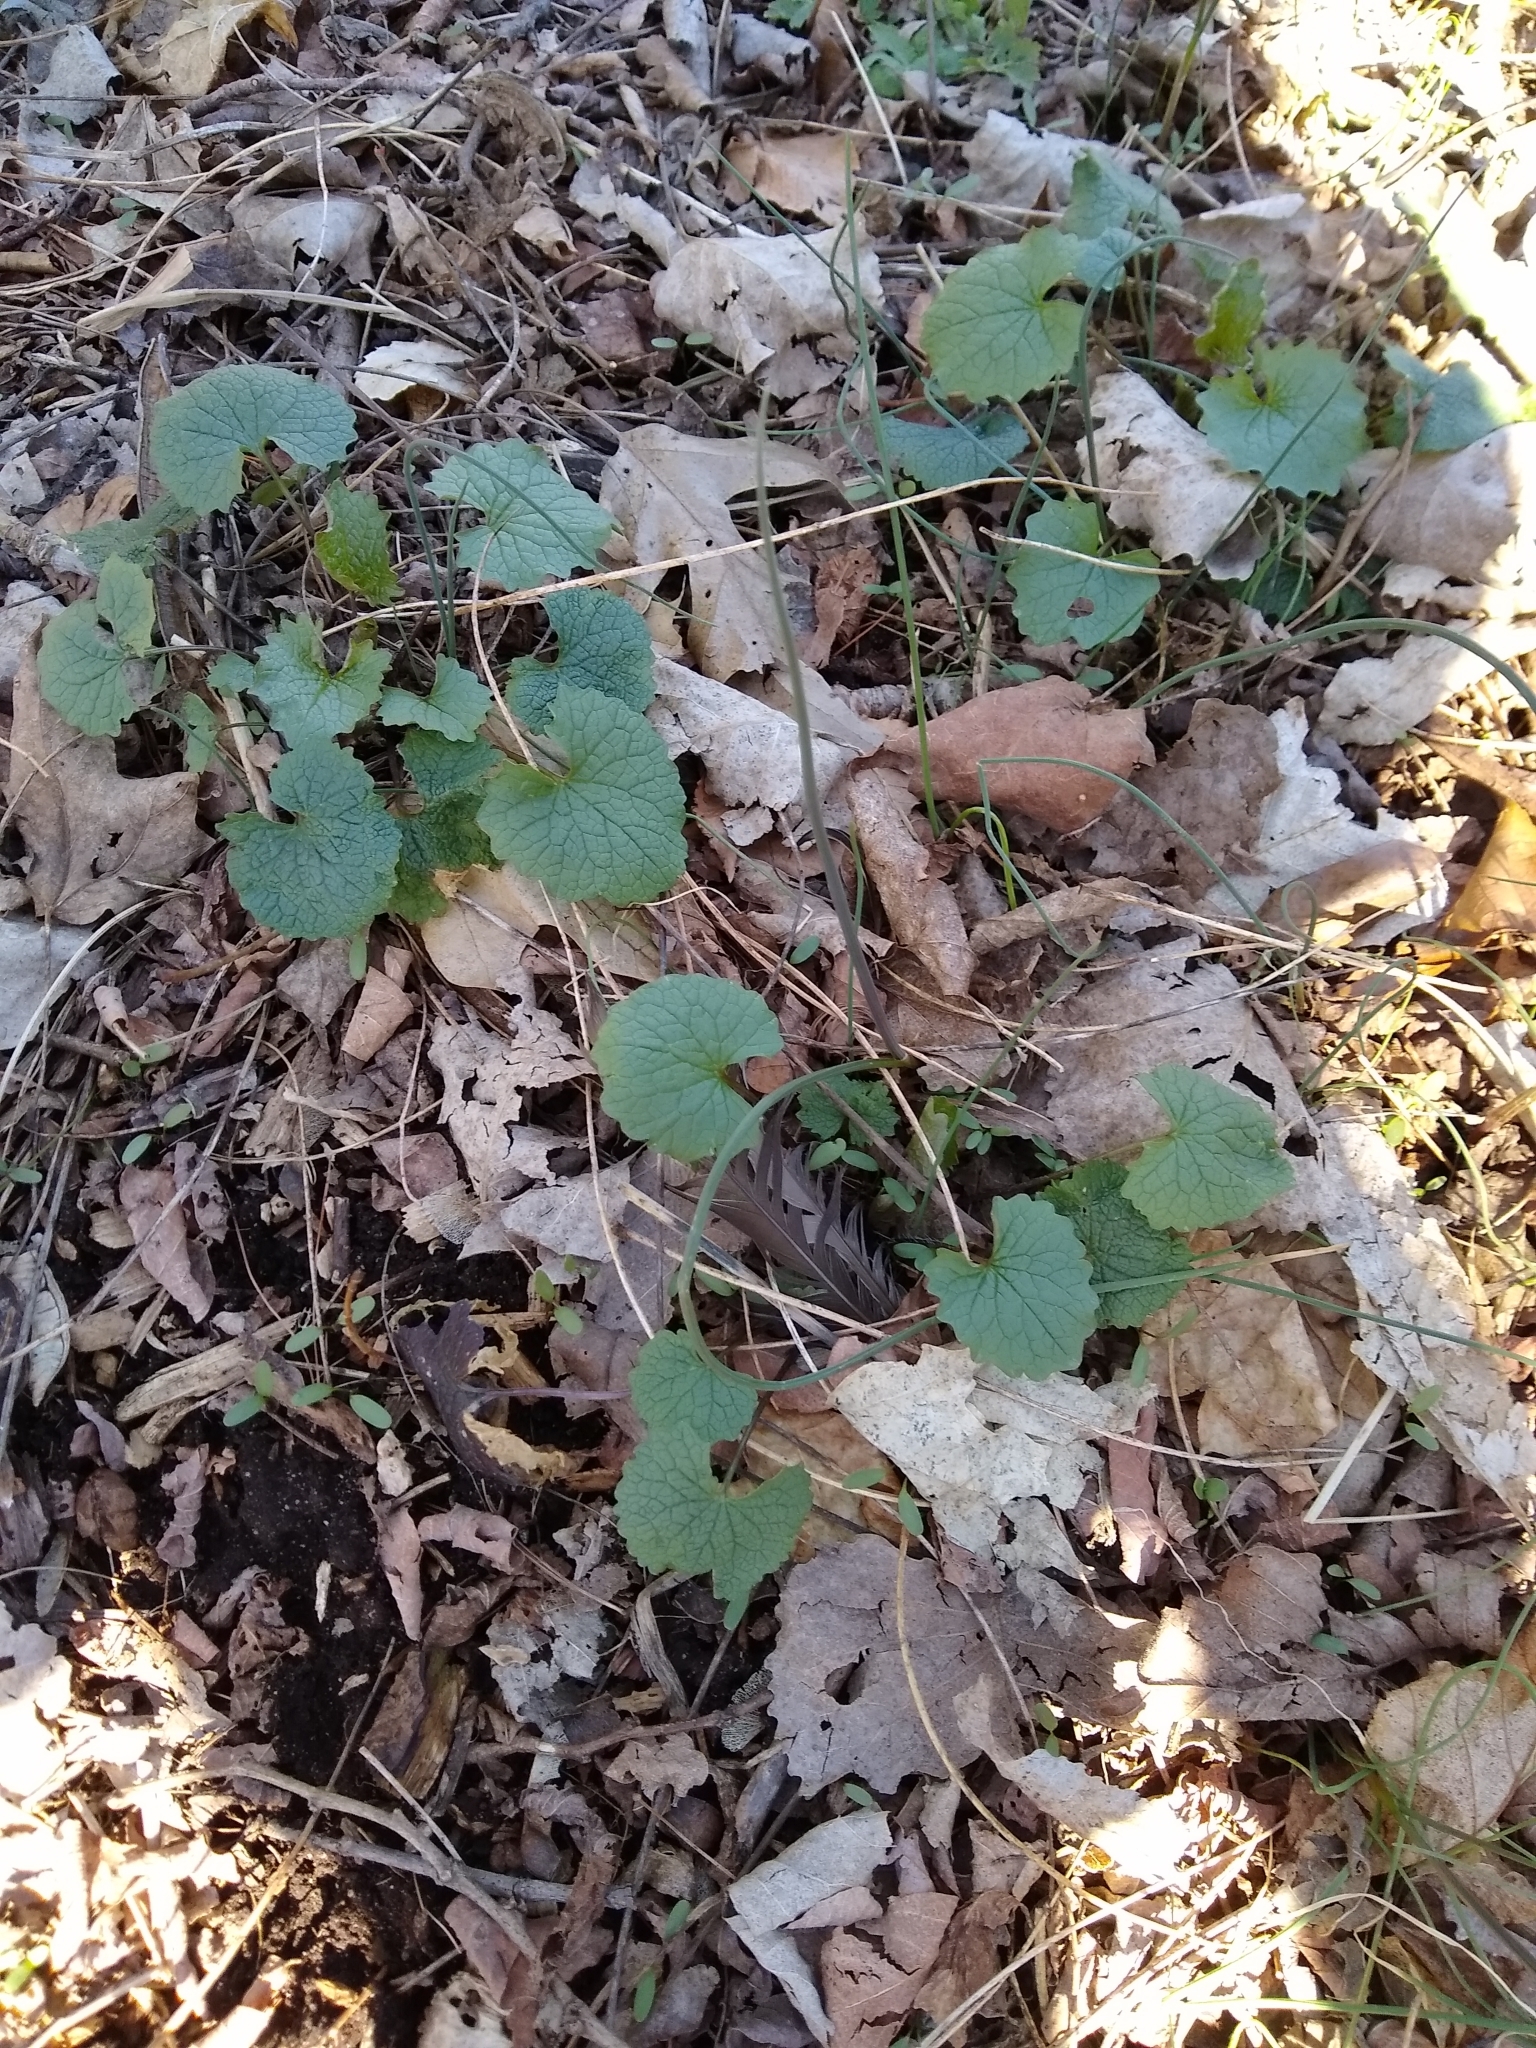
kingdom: Plantae
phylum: Tracheophyta
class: Magnoliopsida
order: Brassicales
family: Brassicaceae
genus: Alliaria
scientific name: Alliaria petiolata
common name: Garlic mustard
